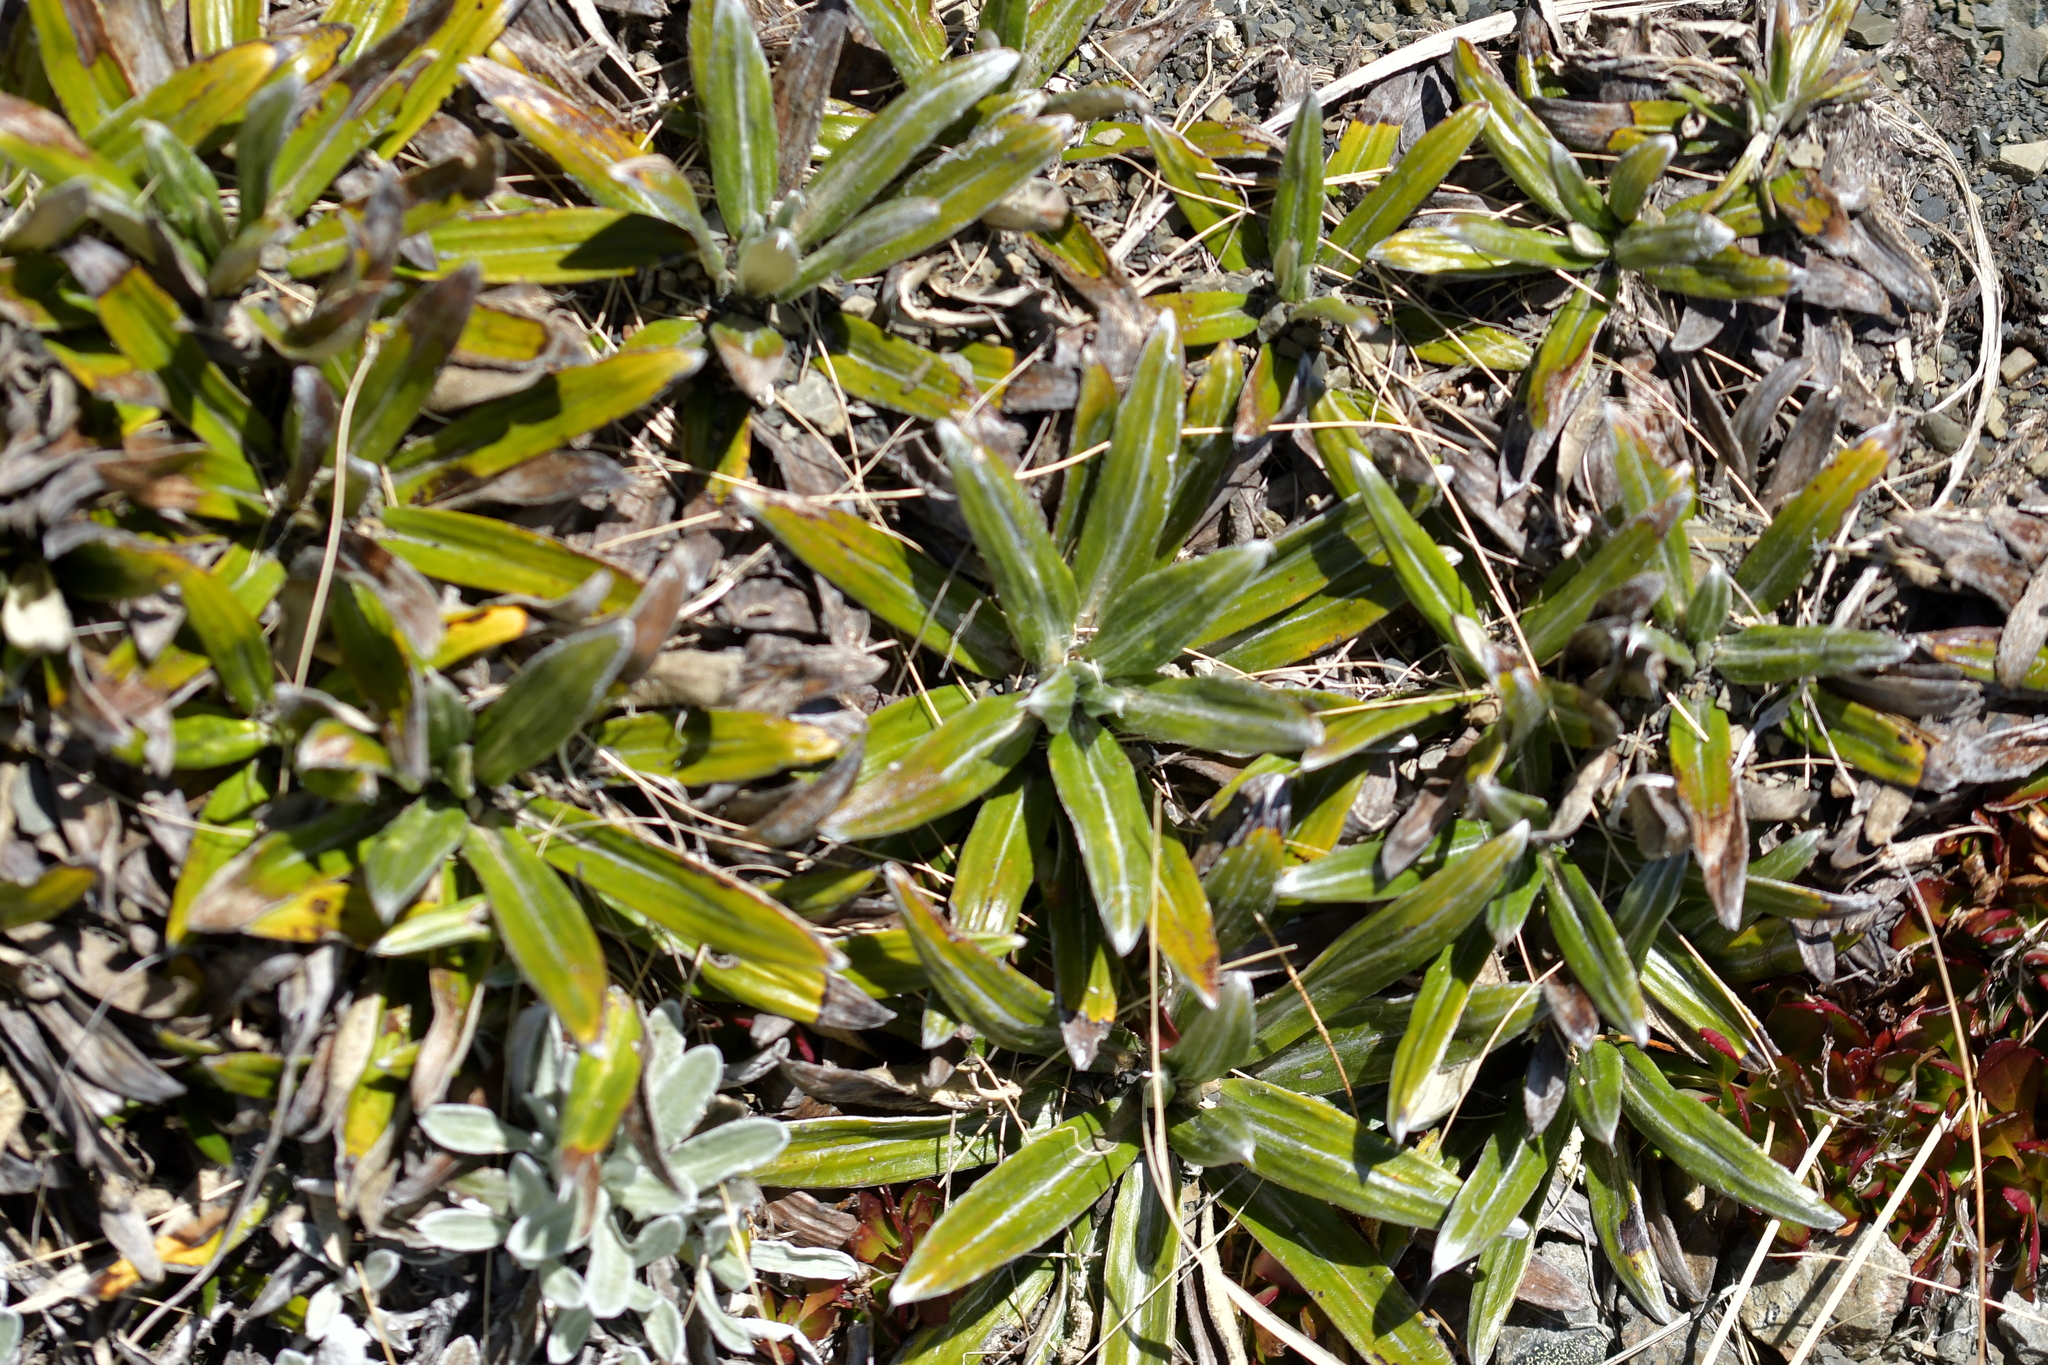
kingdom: Plantae
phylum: Tracheophyta
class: Magnoliopsida
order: Asterales
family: Asteraceae
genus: Celmisia
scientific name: Celmisia spectabilis
